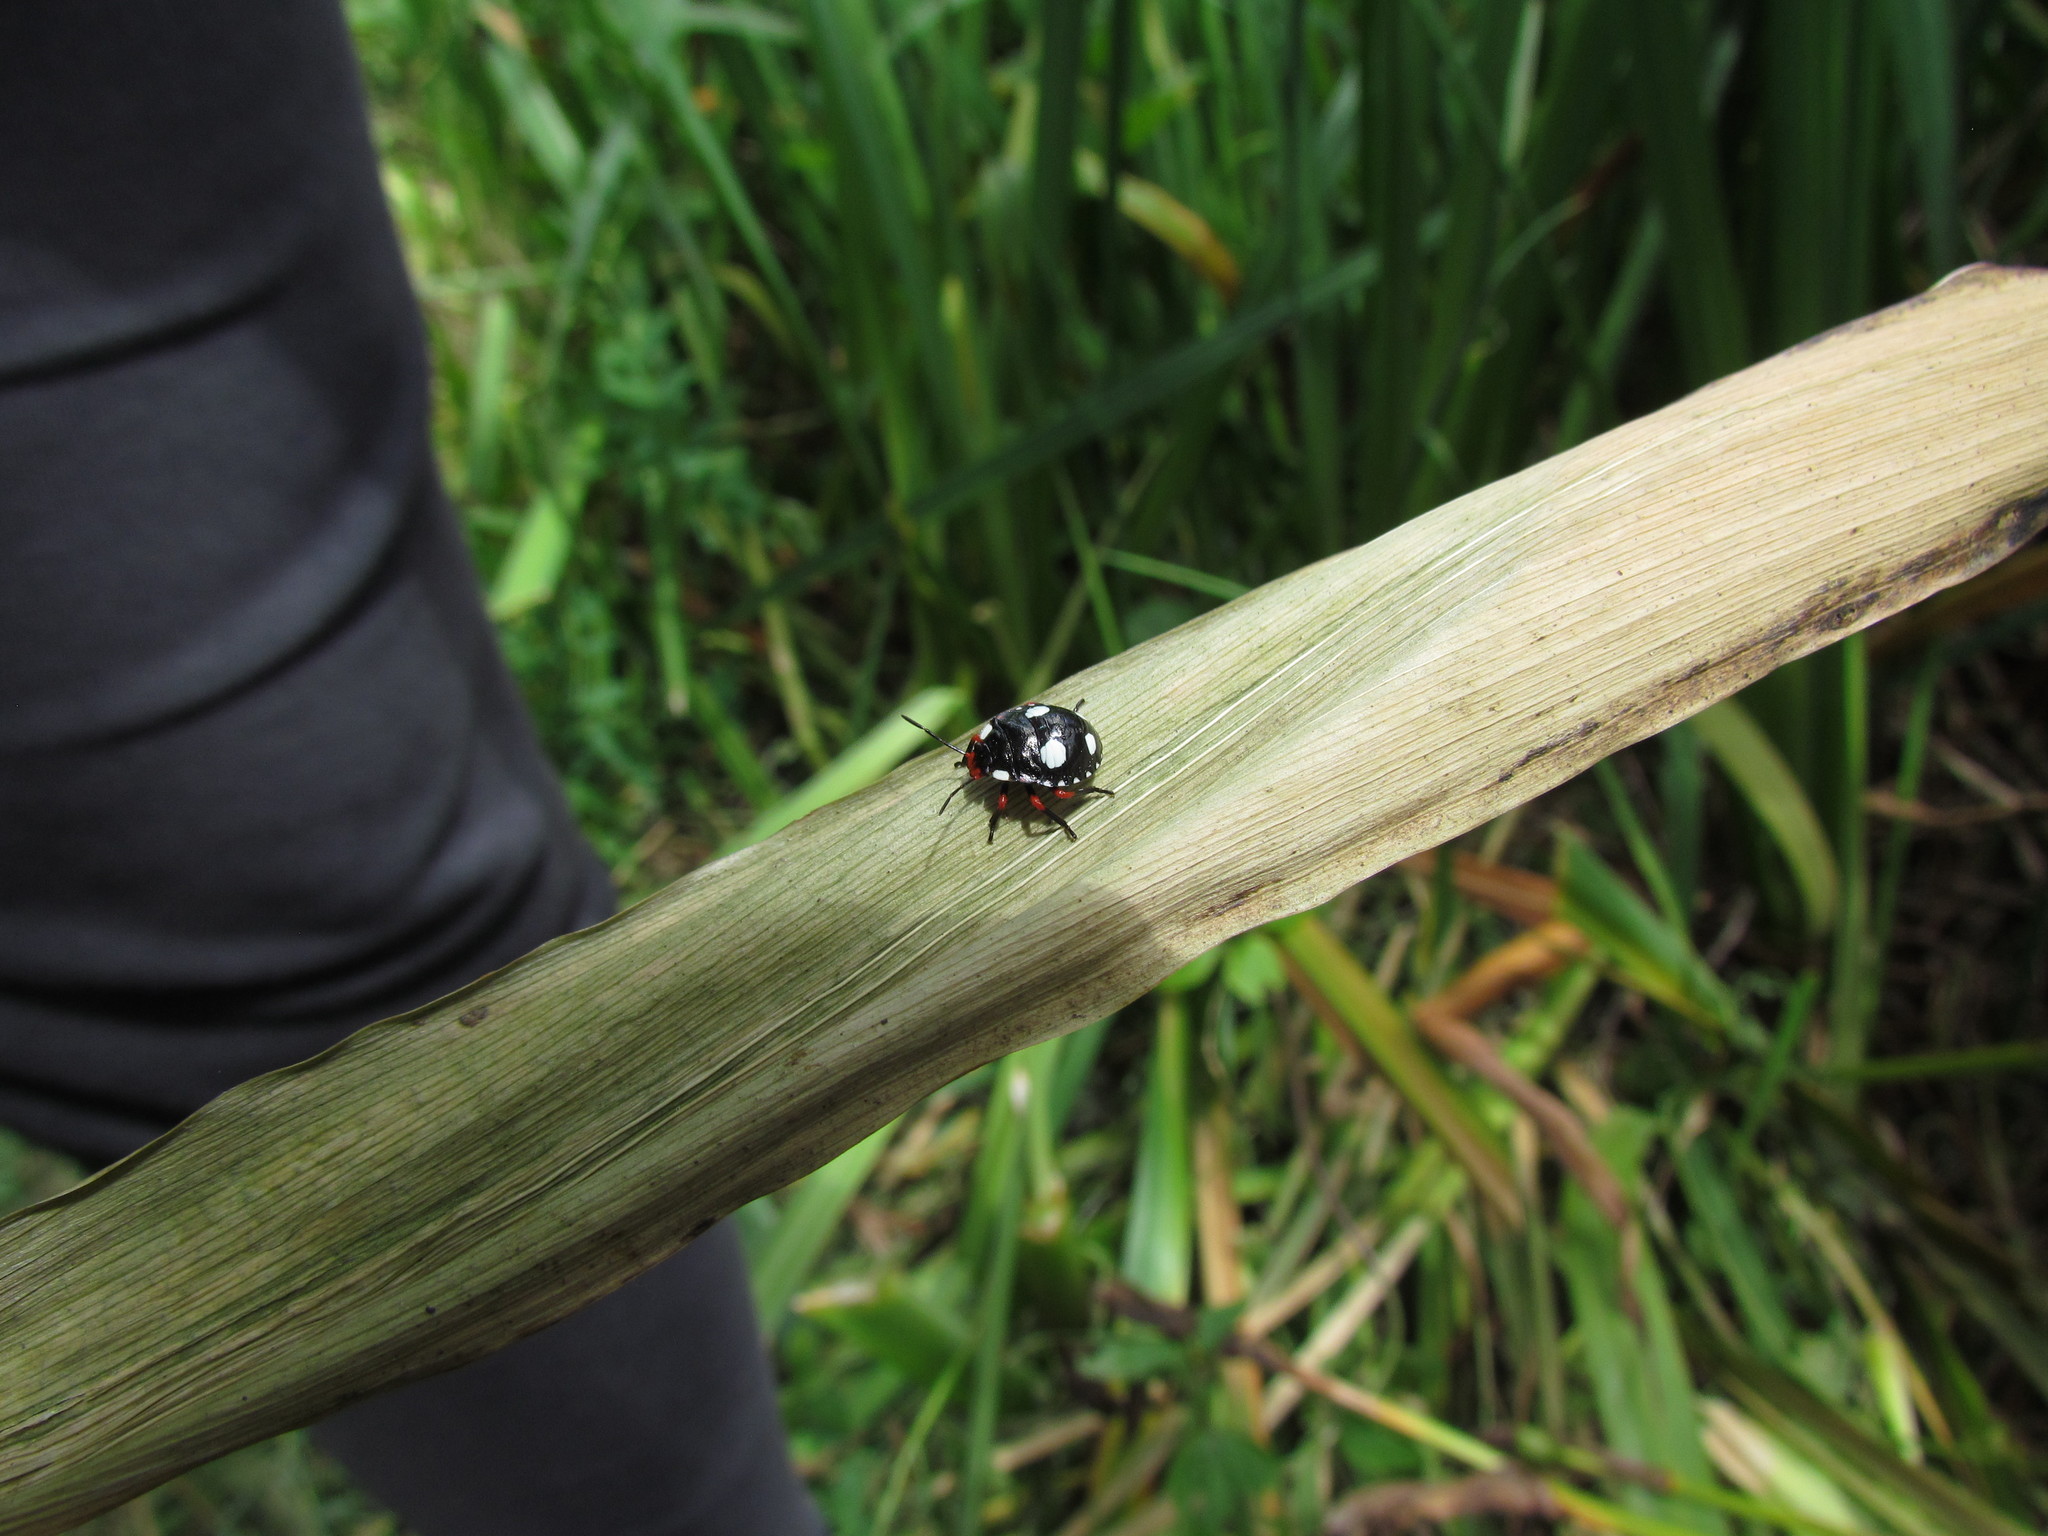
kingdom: Animalia
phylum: Arthropoda
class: Insecta
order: Hemiptera
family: Pentatomidae
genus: Chinavia
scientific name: Chinavia erythrocnemis
